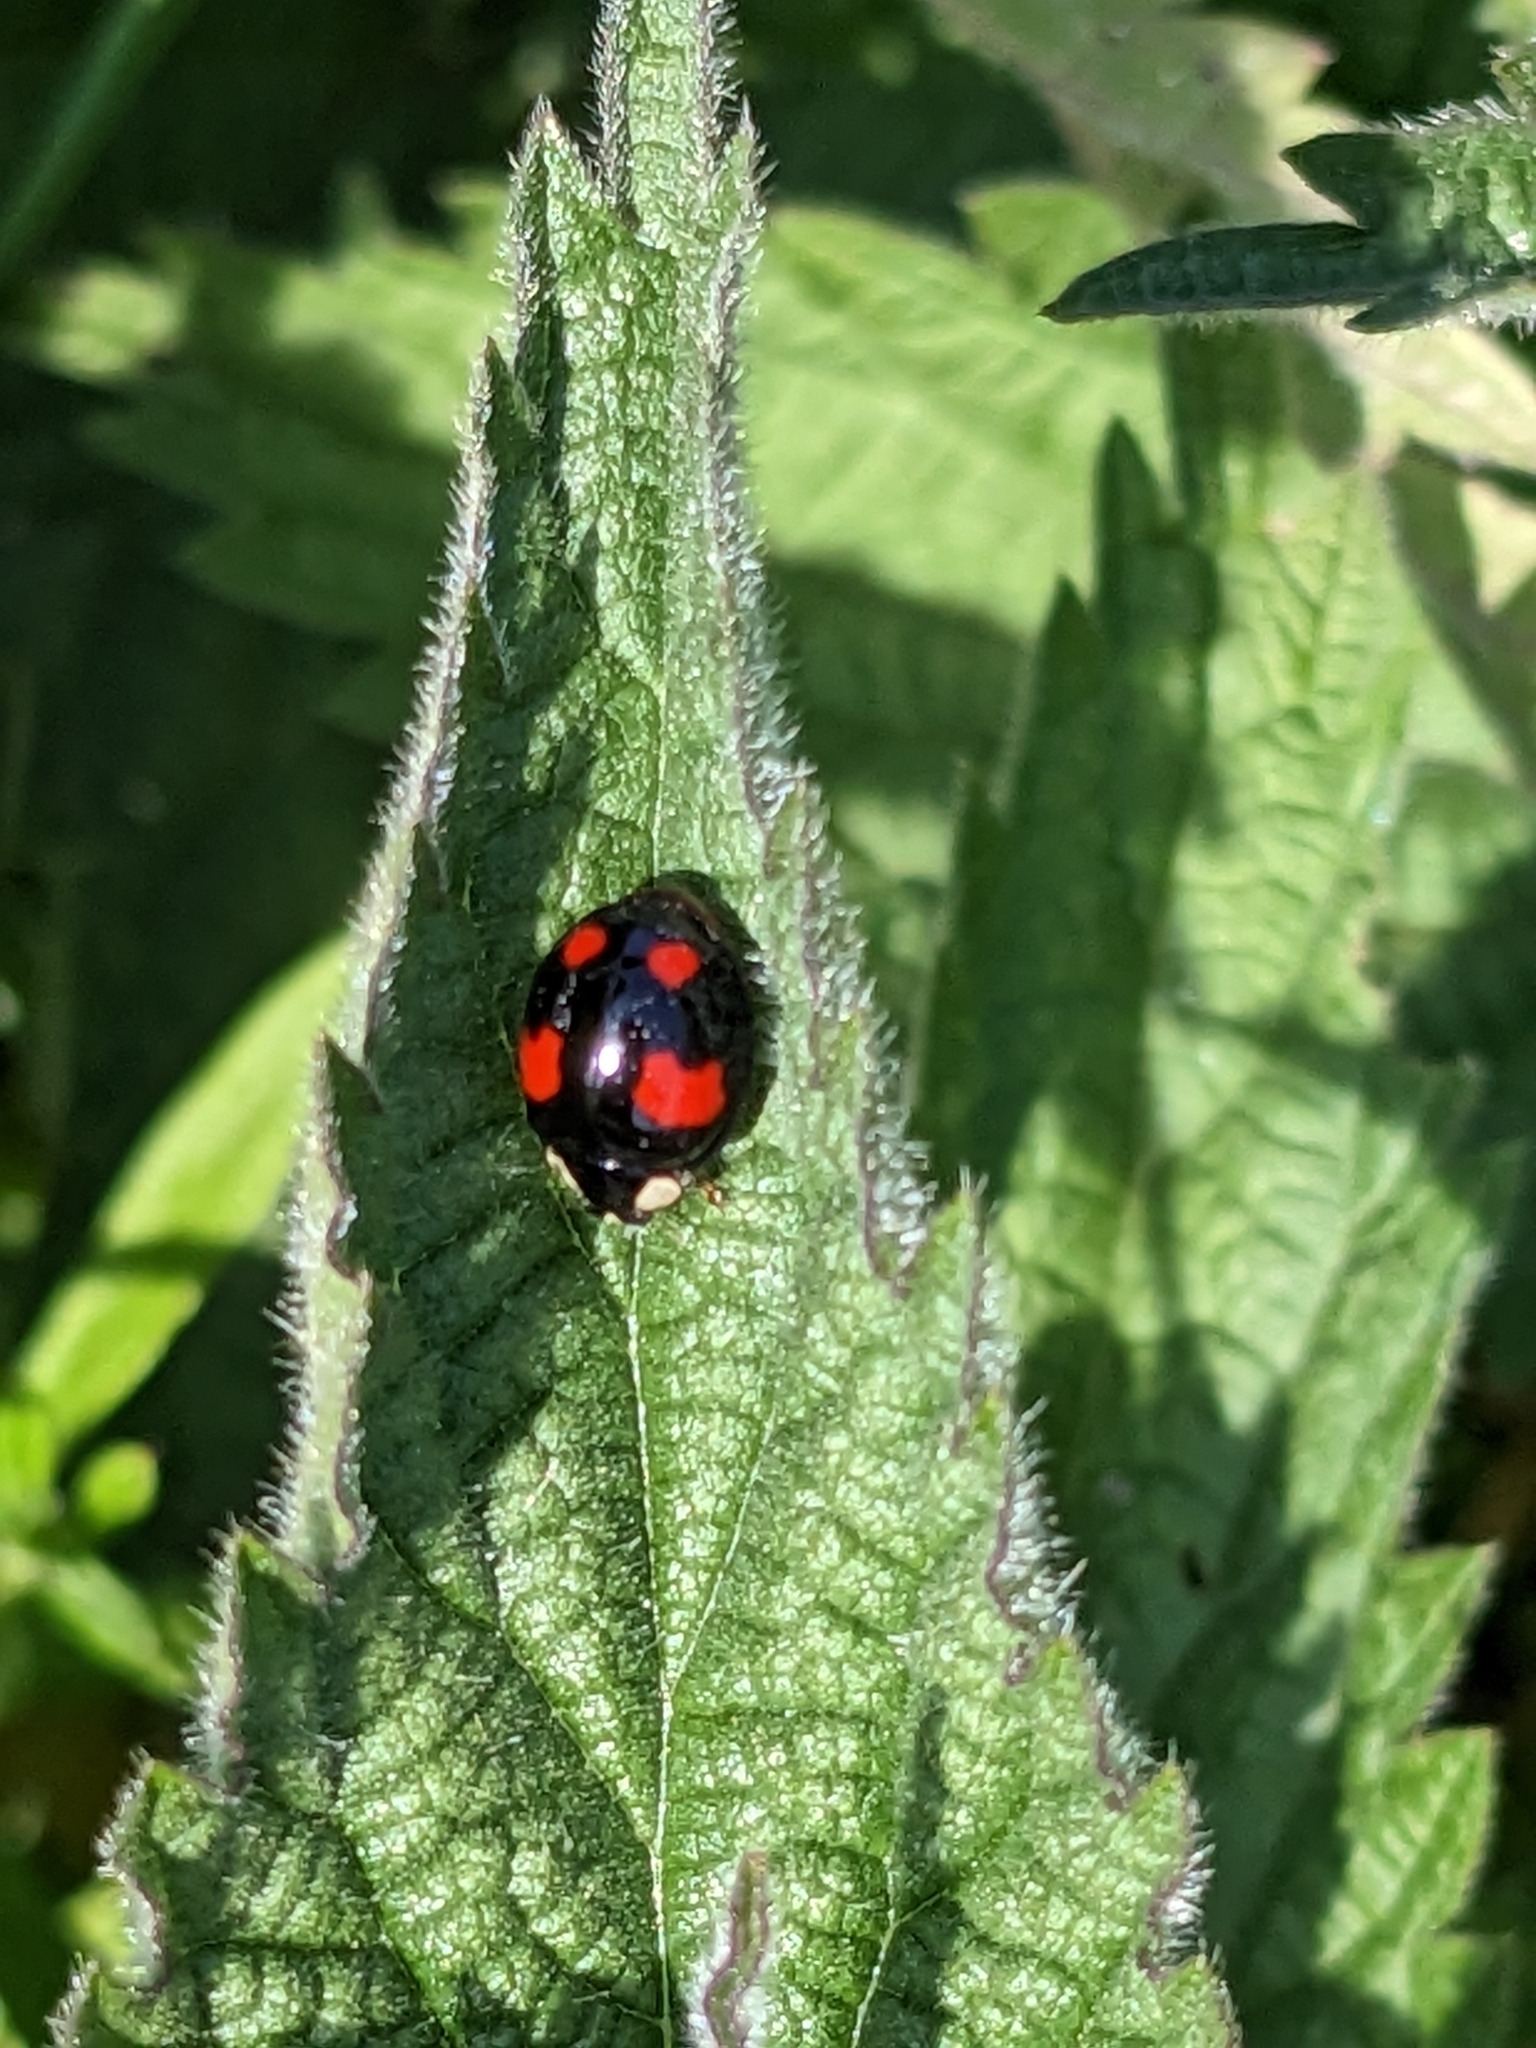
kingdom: Animalia
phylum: Arthropoda
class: Insecta
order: Coleoptera
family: Coccinellidae
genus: Harmonia
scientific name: Harmonia axyridis
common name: Harlequin ladybird
